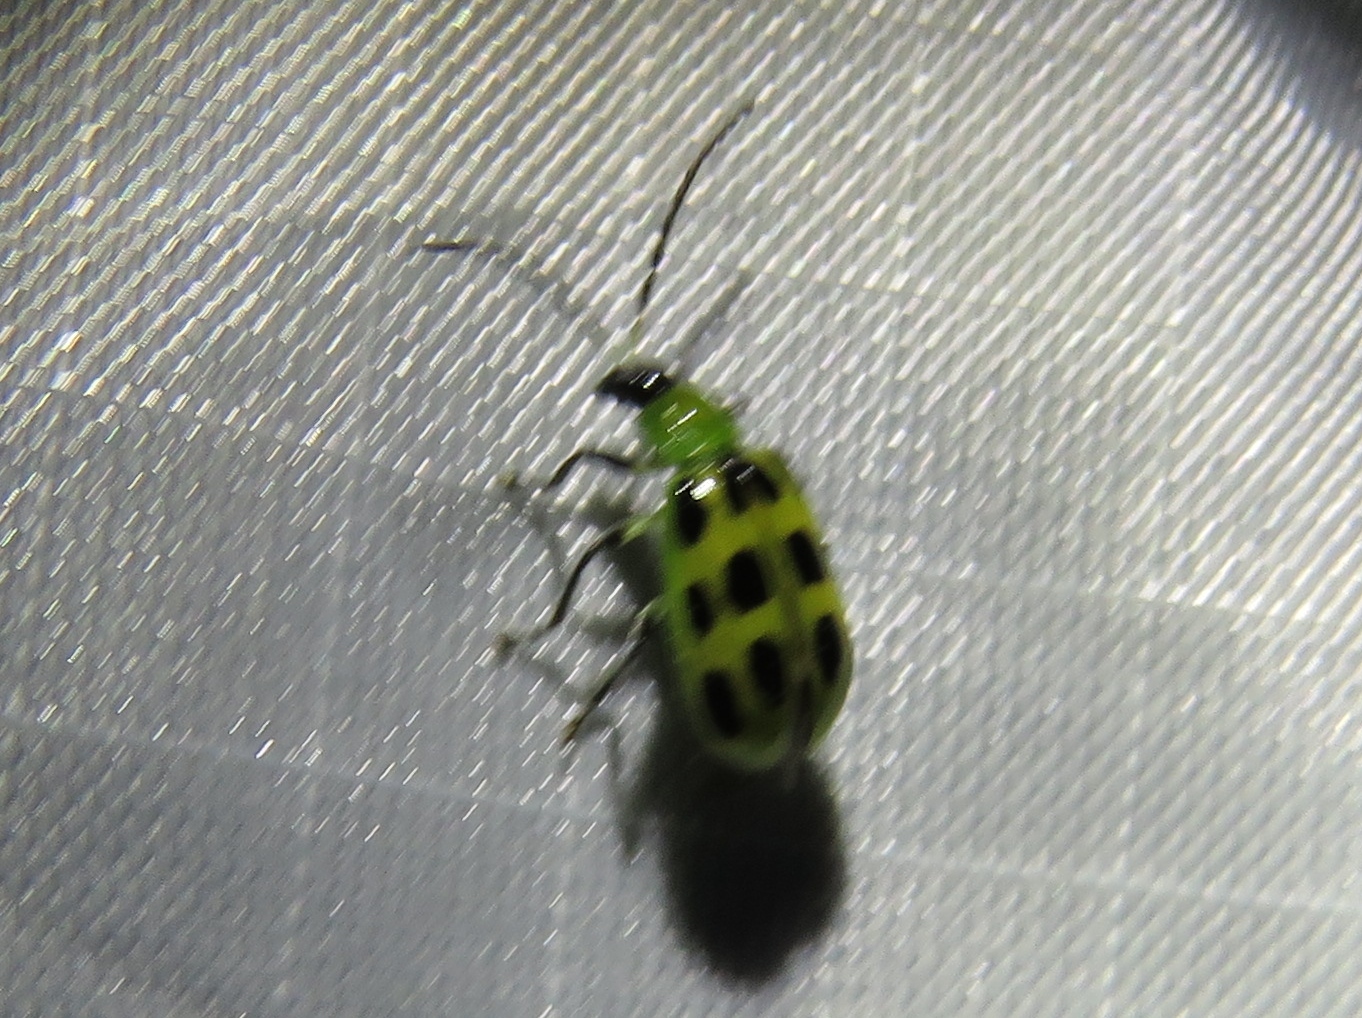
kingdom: Animalia
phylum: Arthropoda
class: Insecta
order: Coleoptera
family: Chrysomelidae
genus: Diabrotica
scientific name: Diabrotica undecimpunctata
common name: Spotted cucumber beetle
